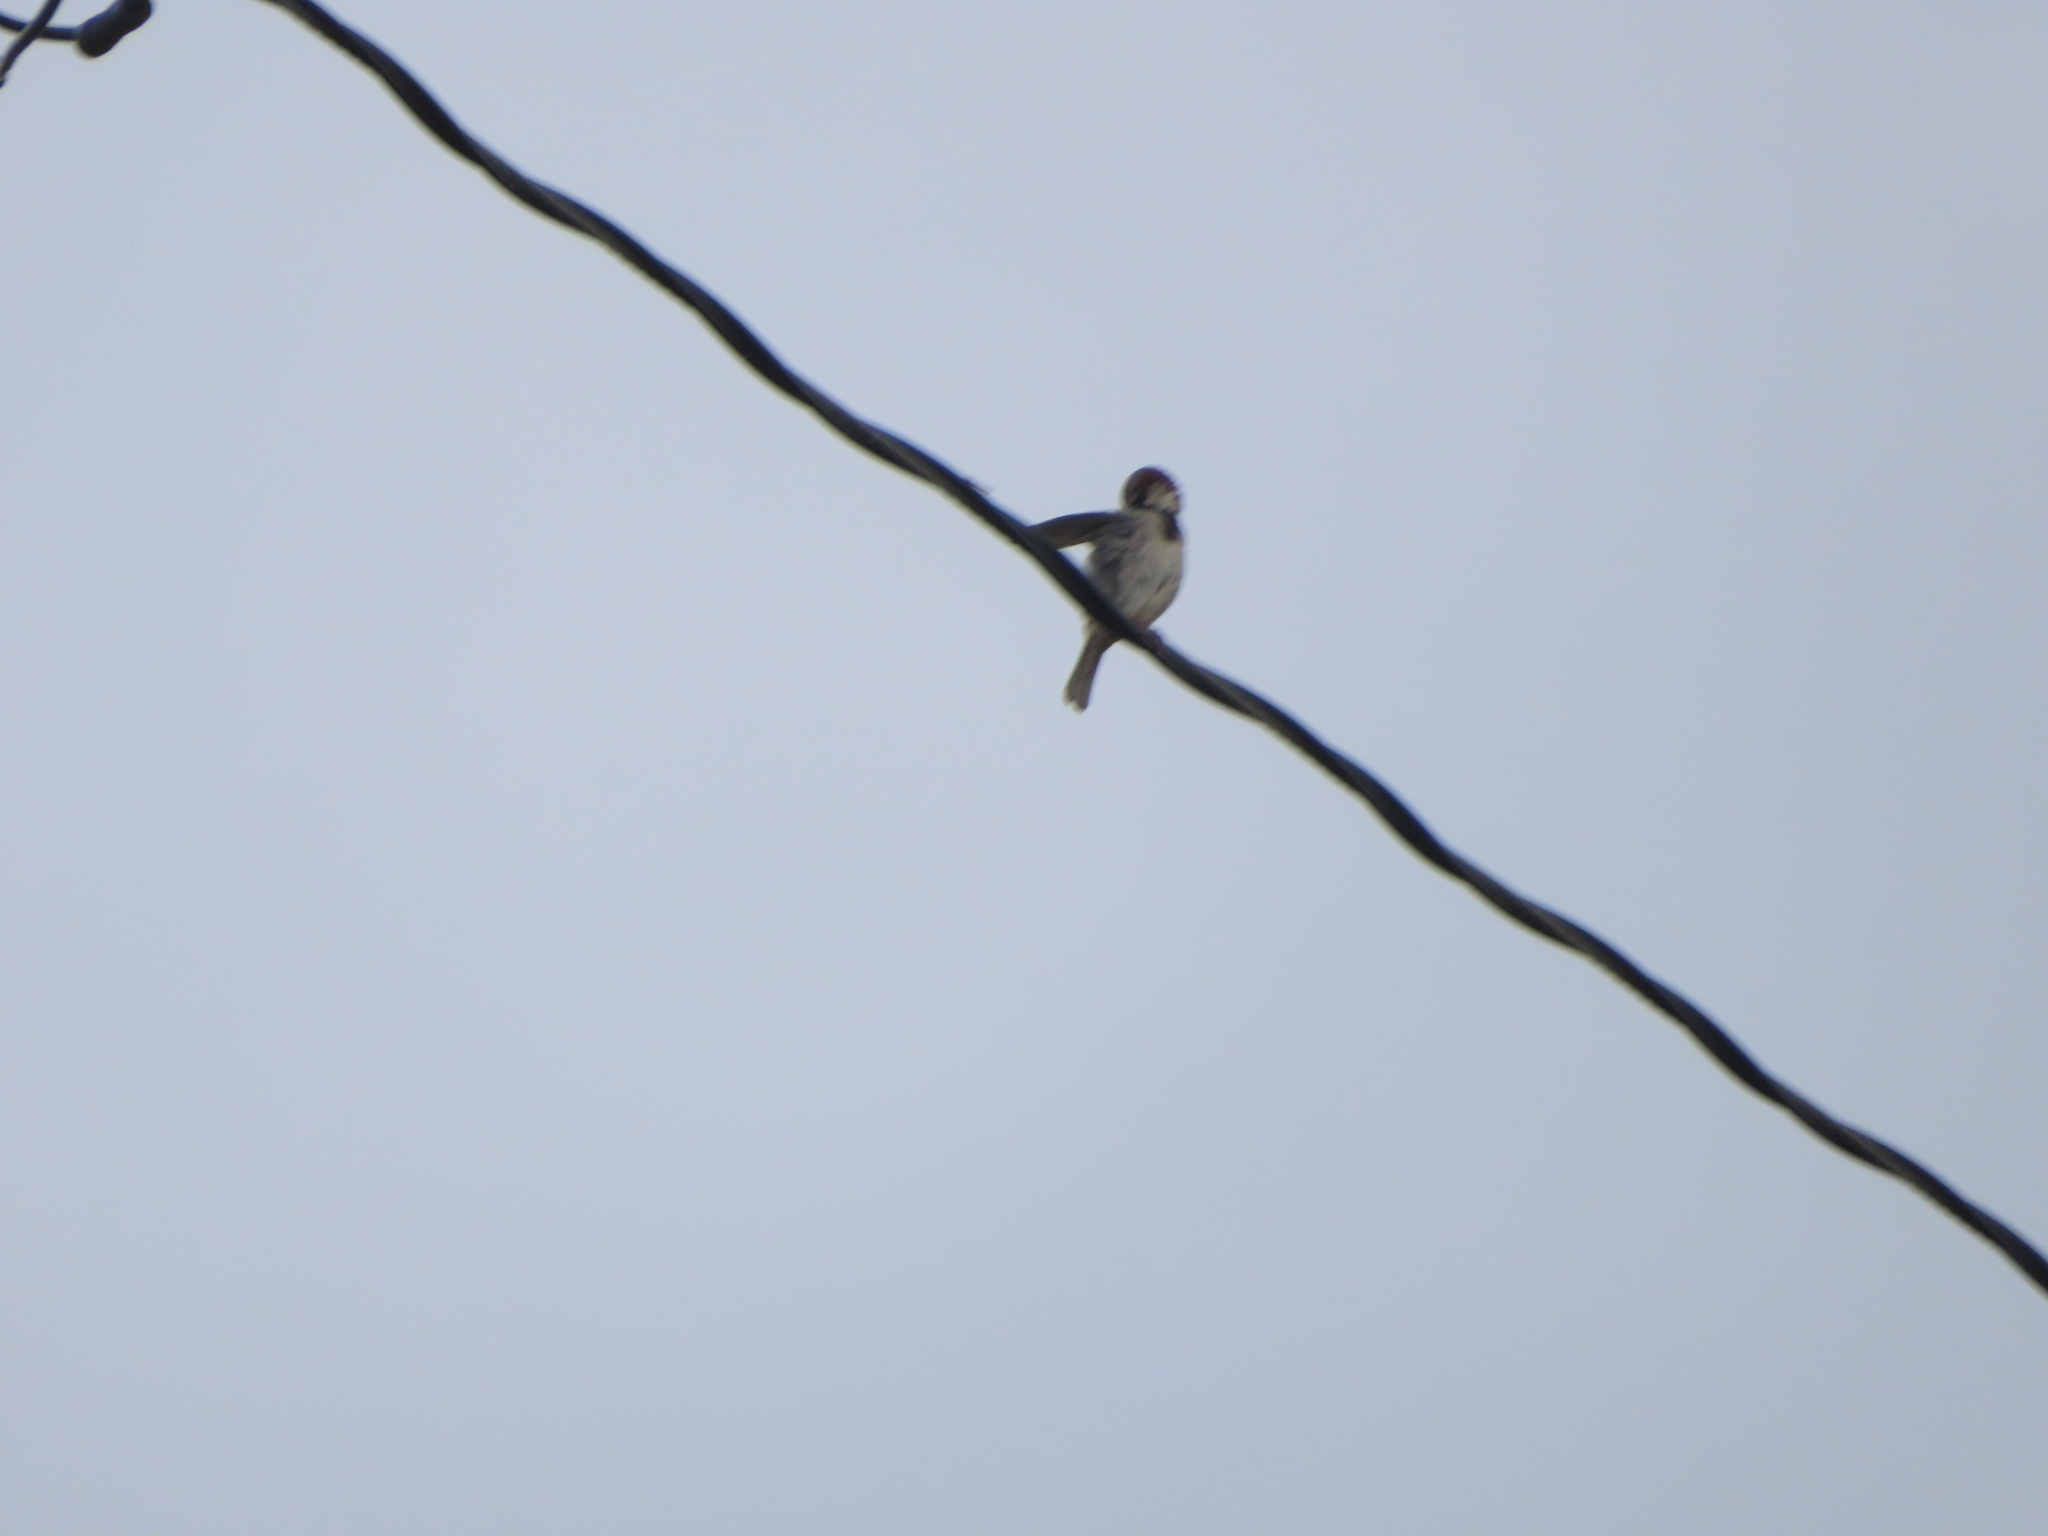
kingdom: Animalia
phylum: Chordata
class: Aves
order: Passeriformes
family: Passeridae
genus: Passer
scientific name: Passer domesticus
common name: House sparrow
